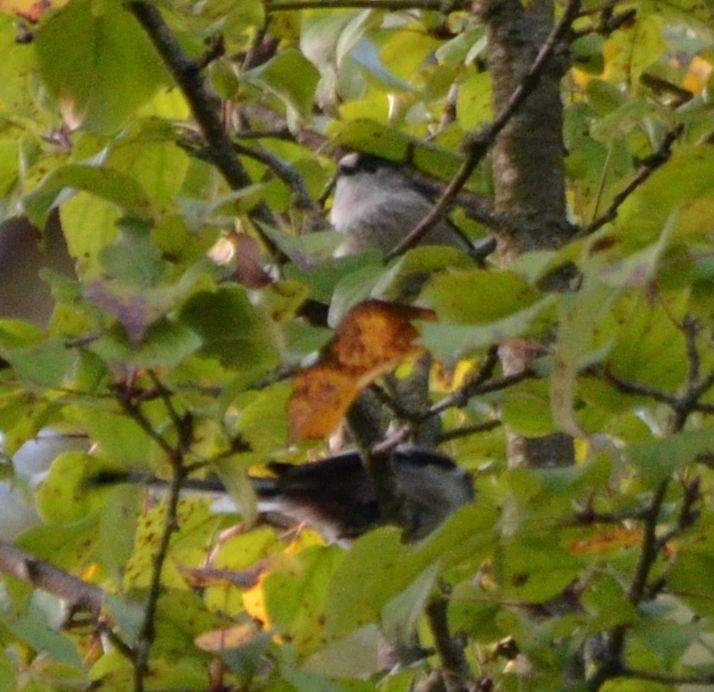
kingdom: Animalia
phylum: Chordata
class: Aves
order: Passeriformes
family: Aegithalidae
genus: Aegithalos
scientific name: Aegithalos caudatus
